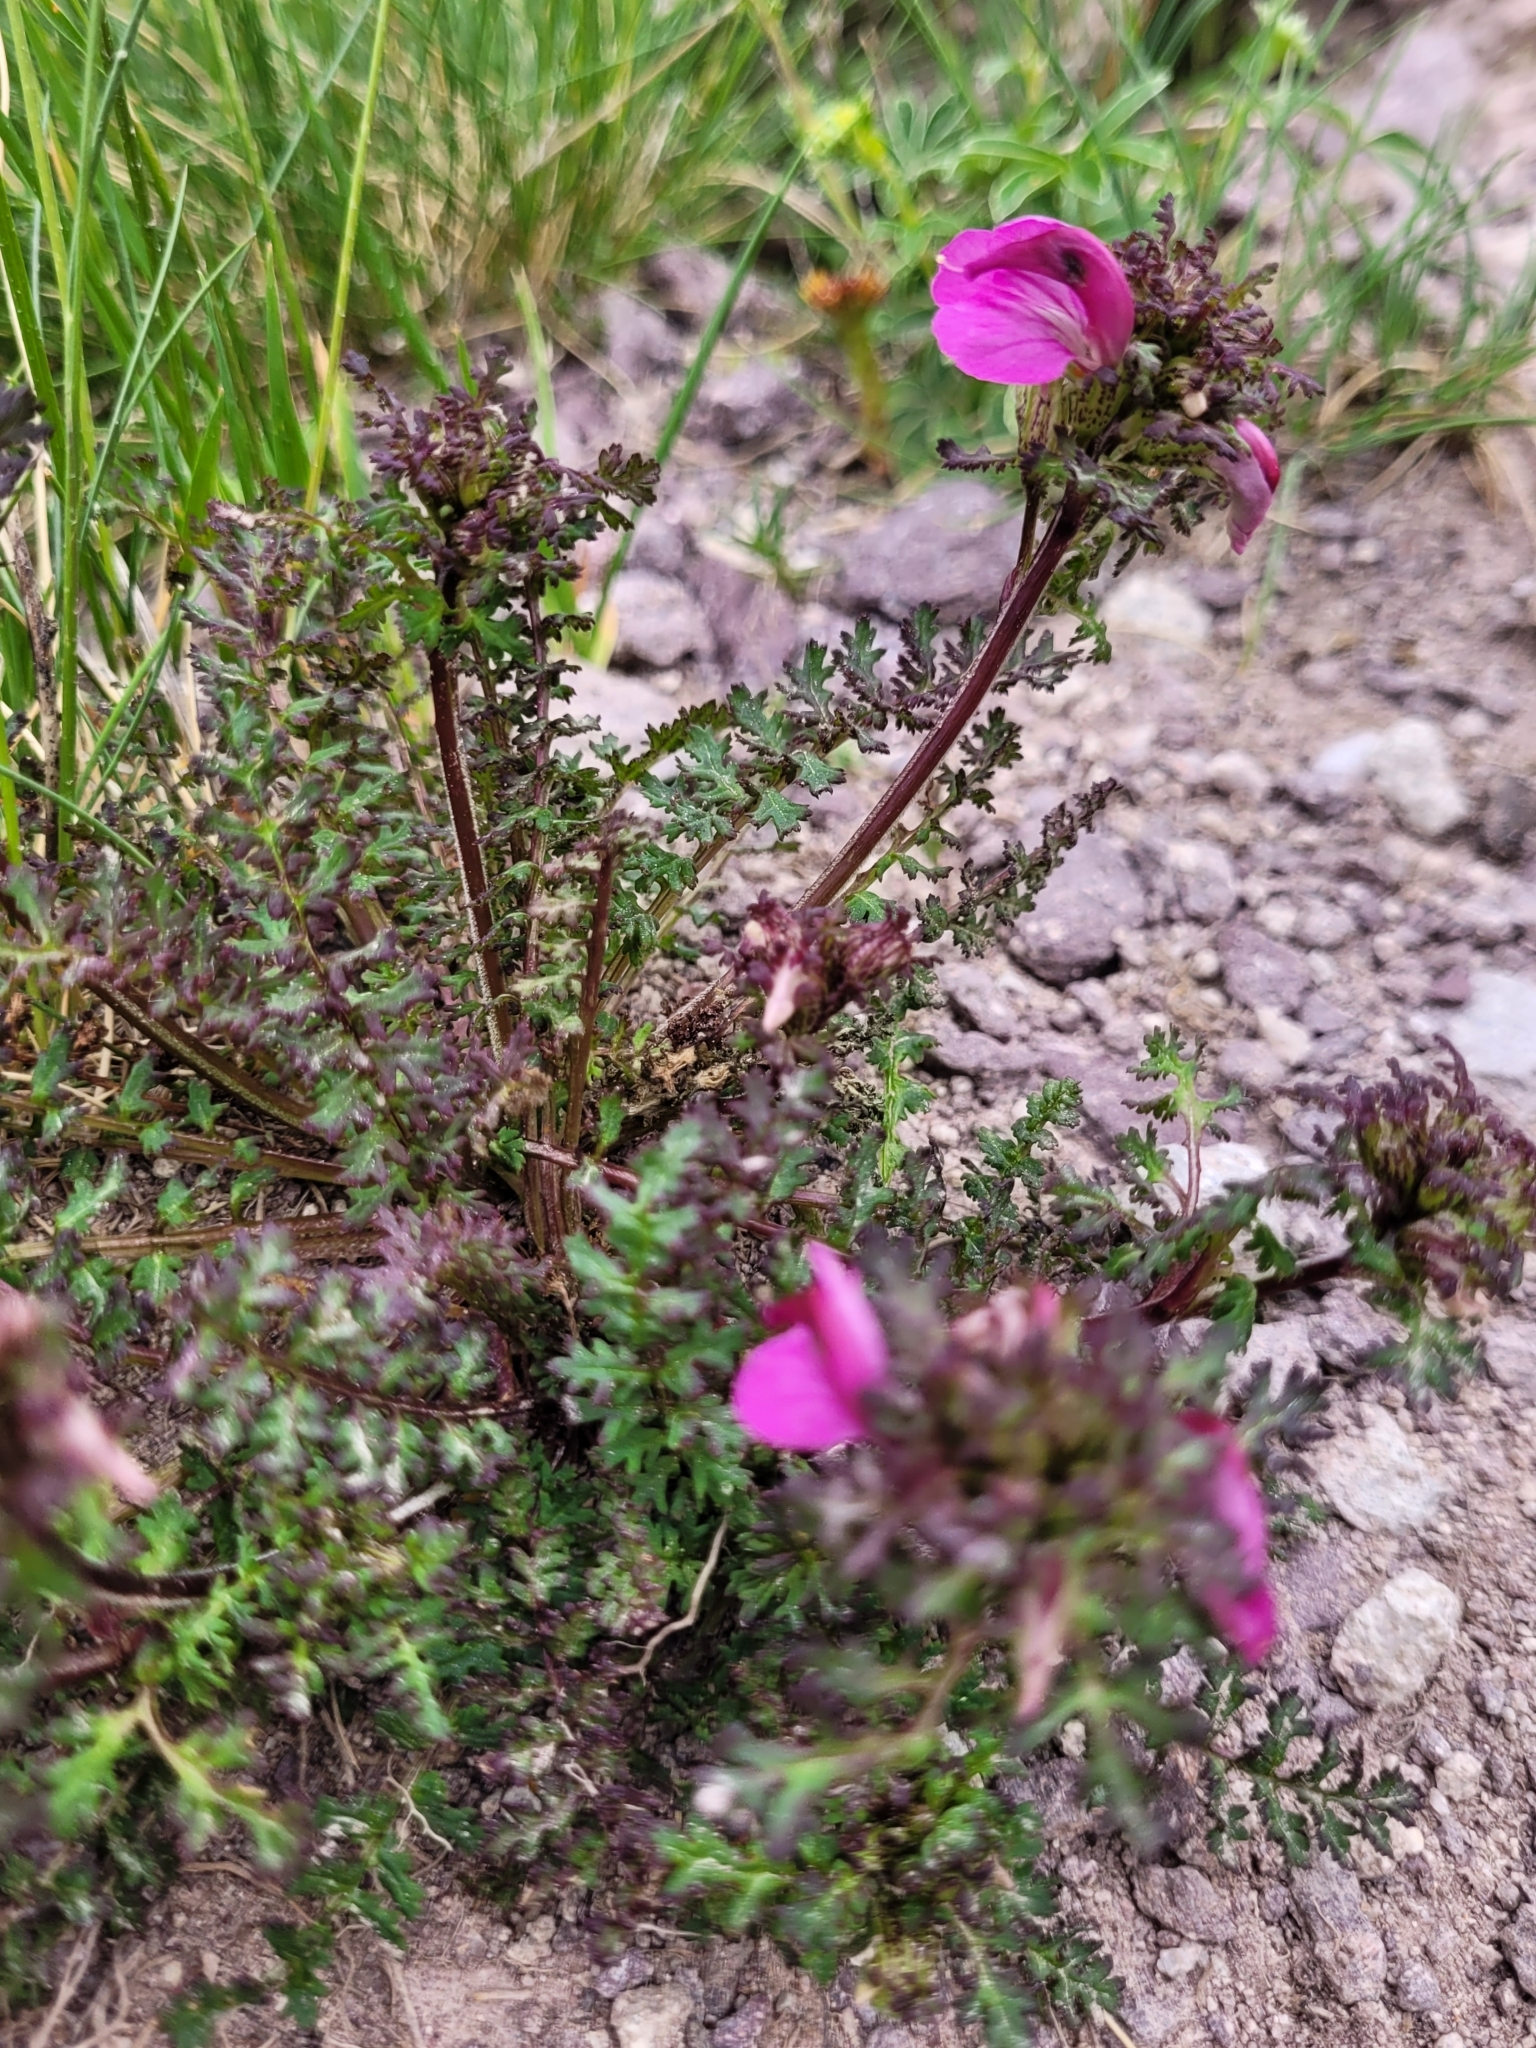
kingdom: Plantae
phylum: Tracheophyta
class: Magnoliopsida
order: Lamiales
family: Orobanchaceae
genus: Pedicularis
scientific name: Pedicularis kerneri
